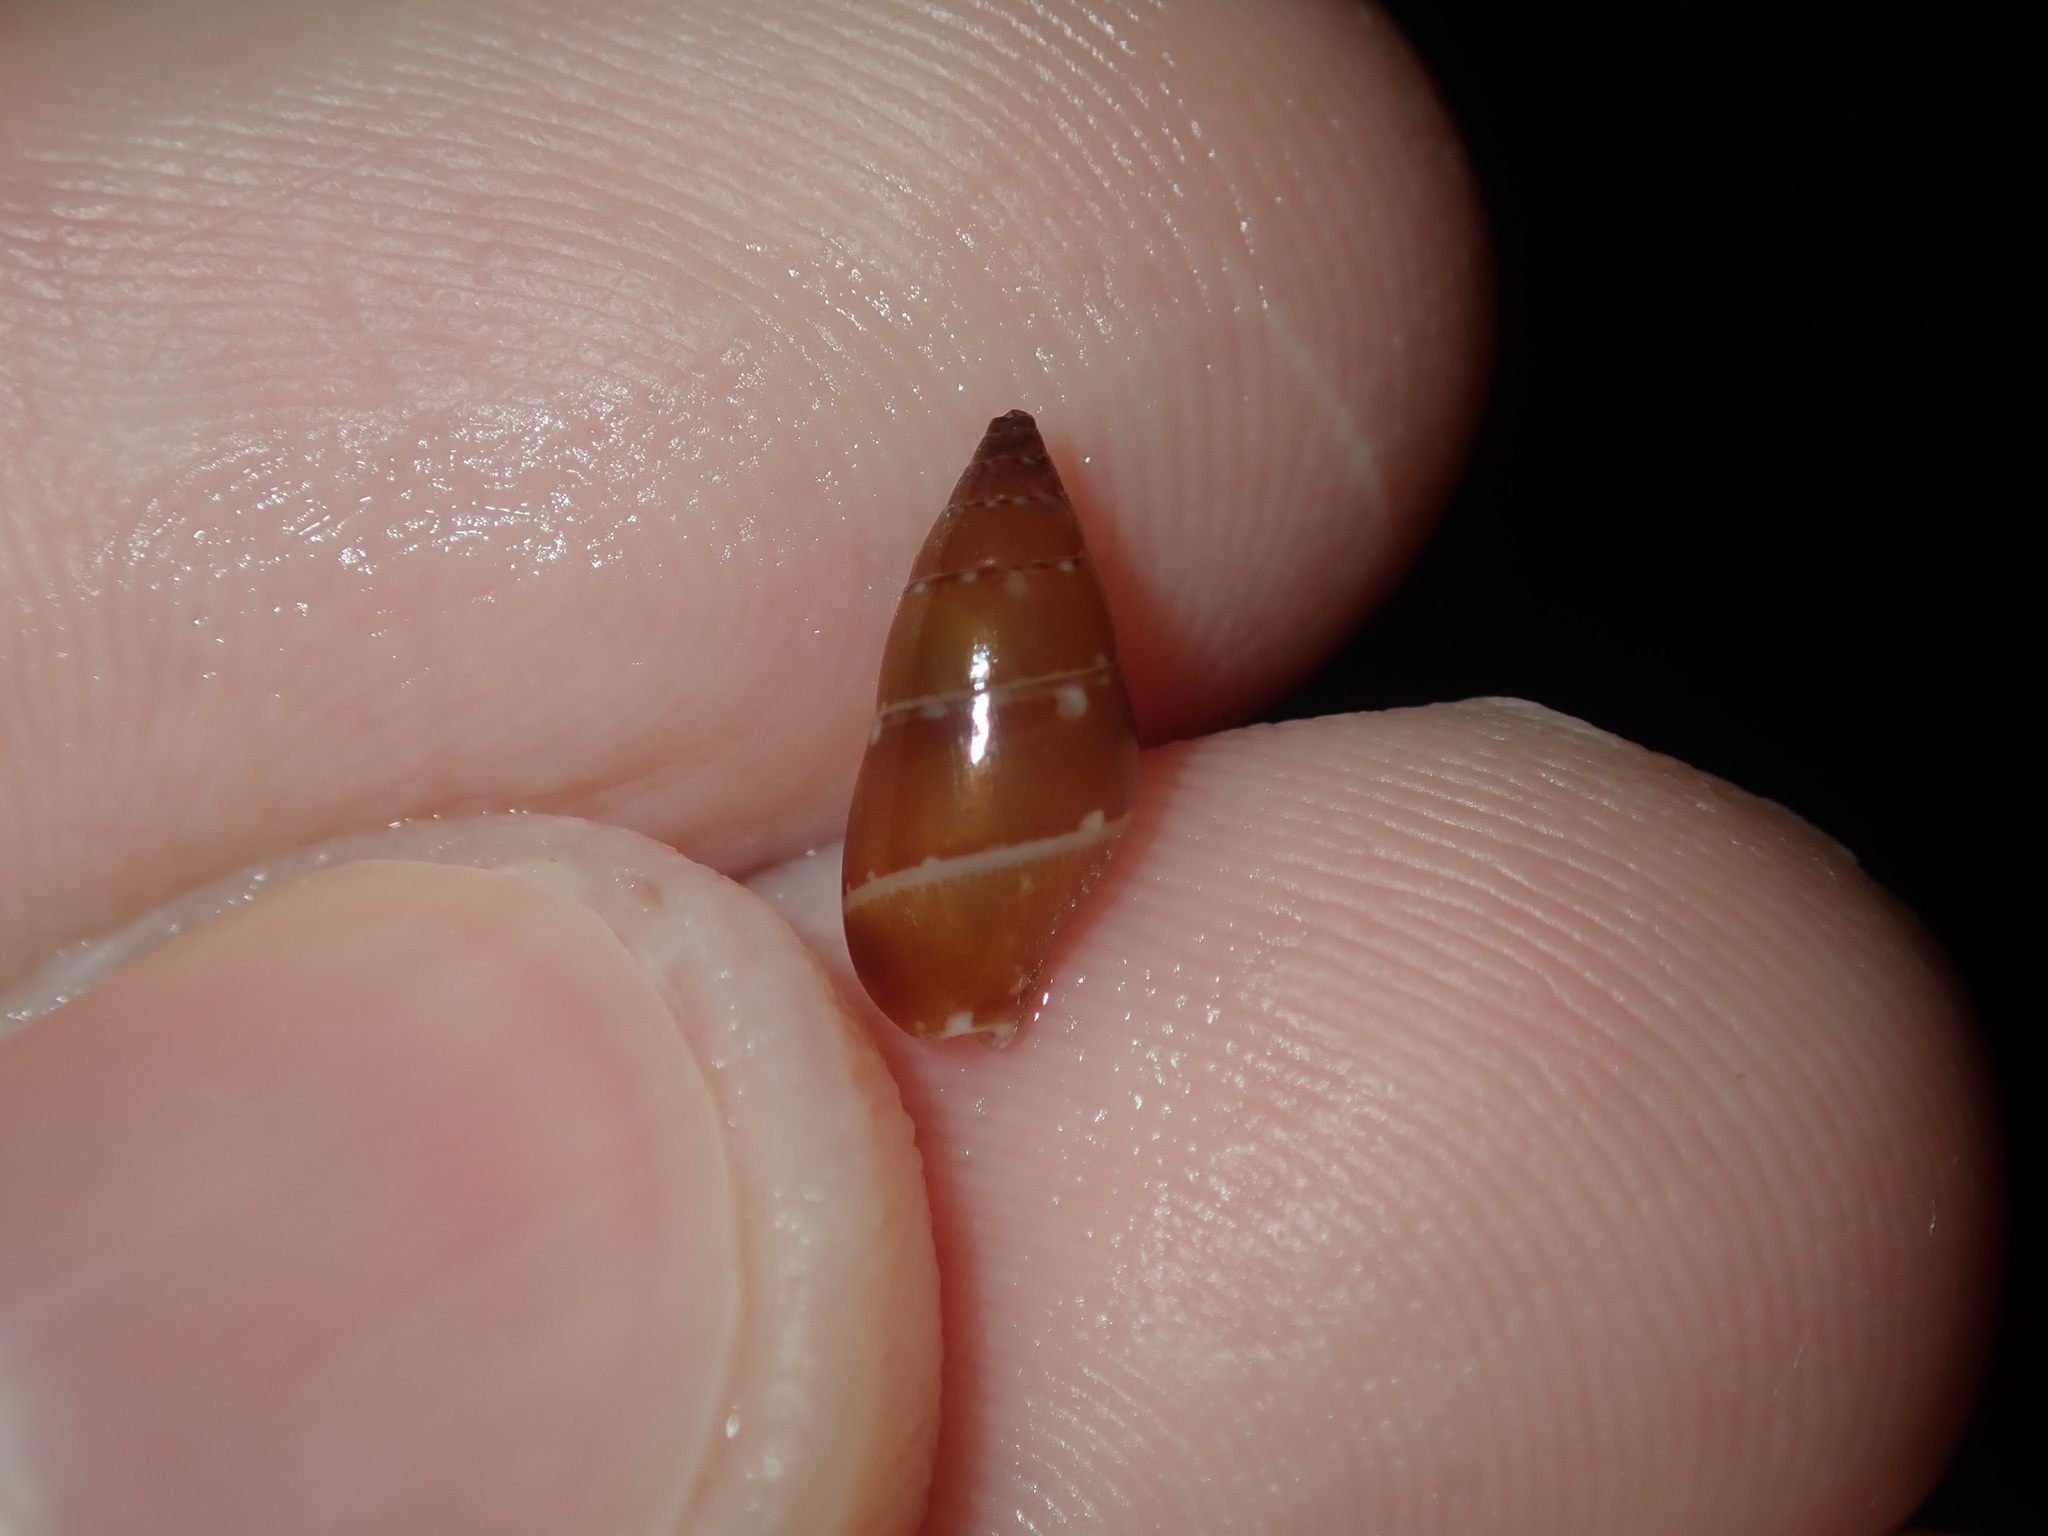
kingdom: Animalia
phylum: Mollusca
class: Gastropoda
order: Neogastropoda
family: Columbellidae
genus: Mitrella
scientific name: Mitrella bicincta
